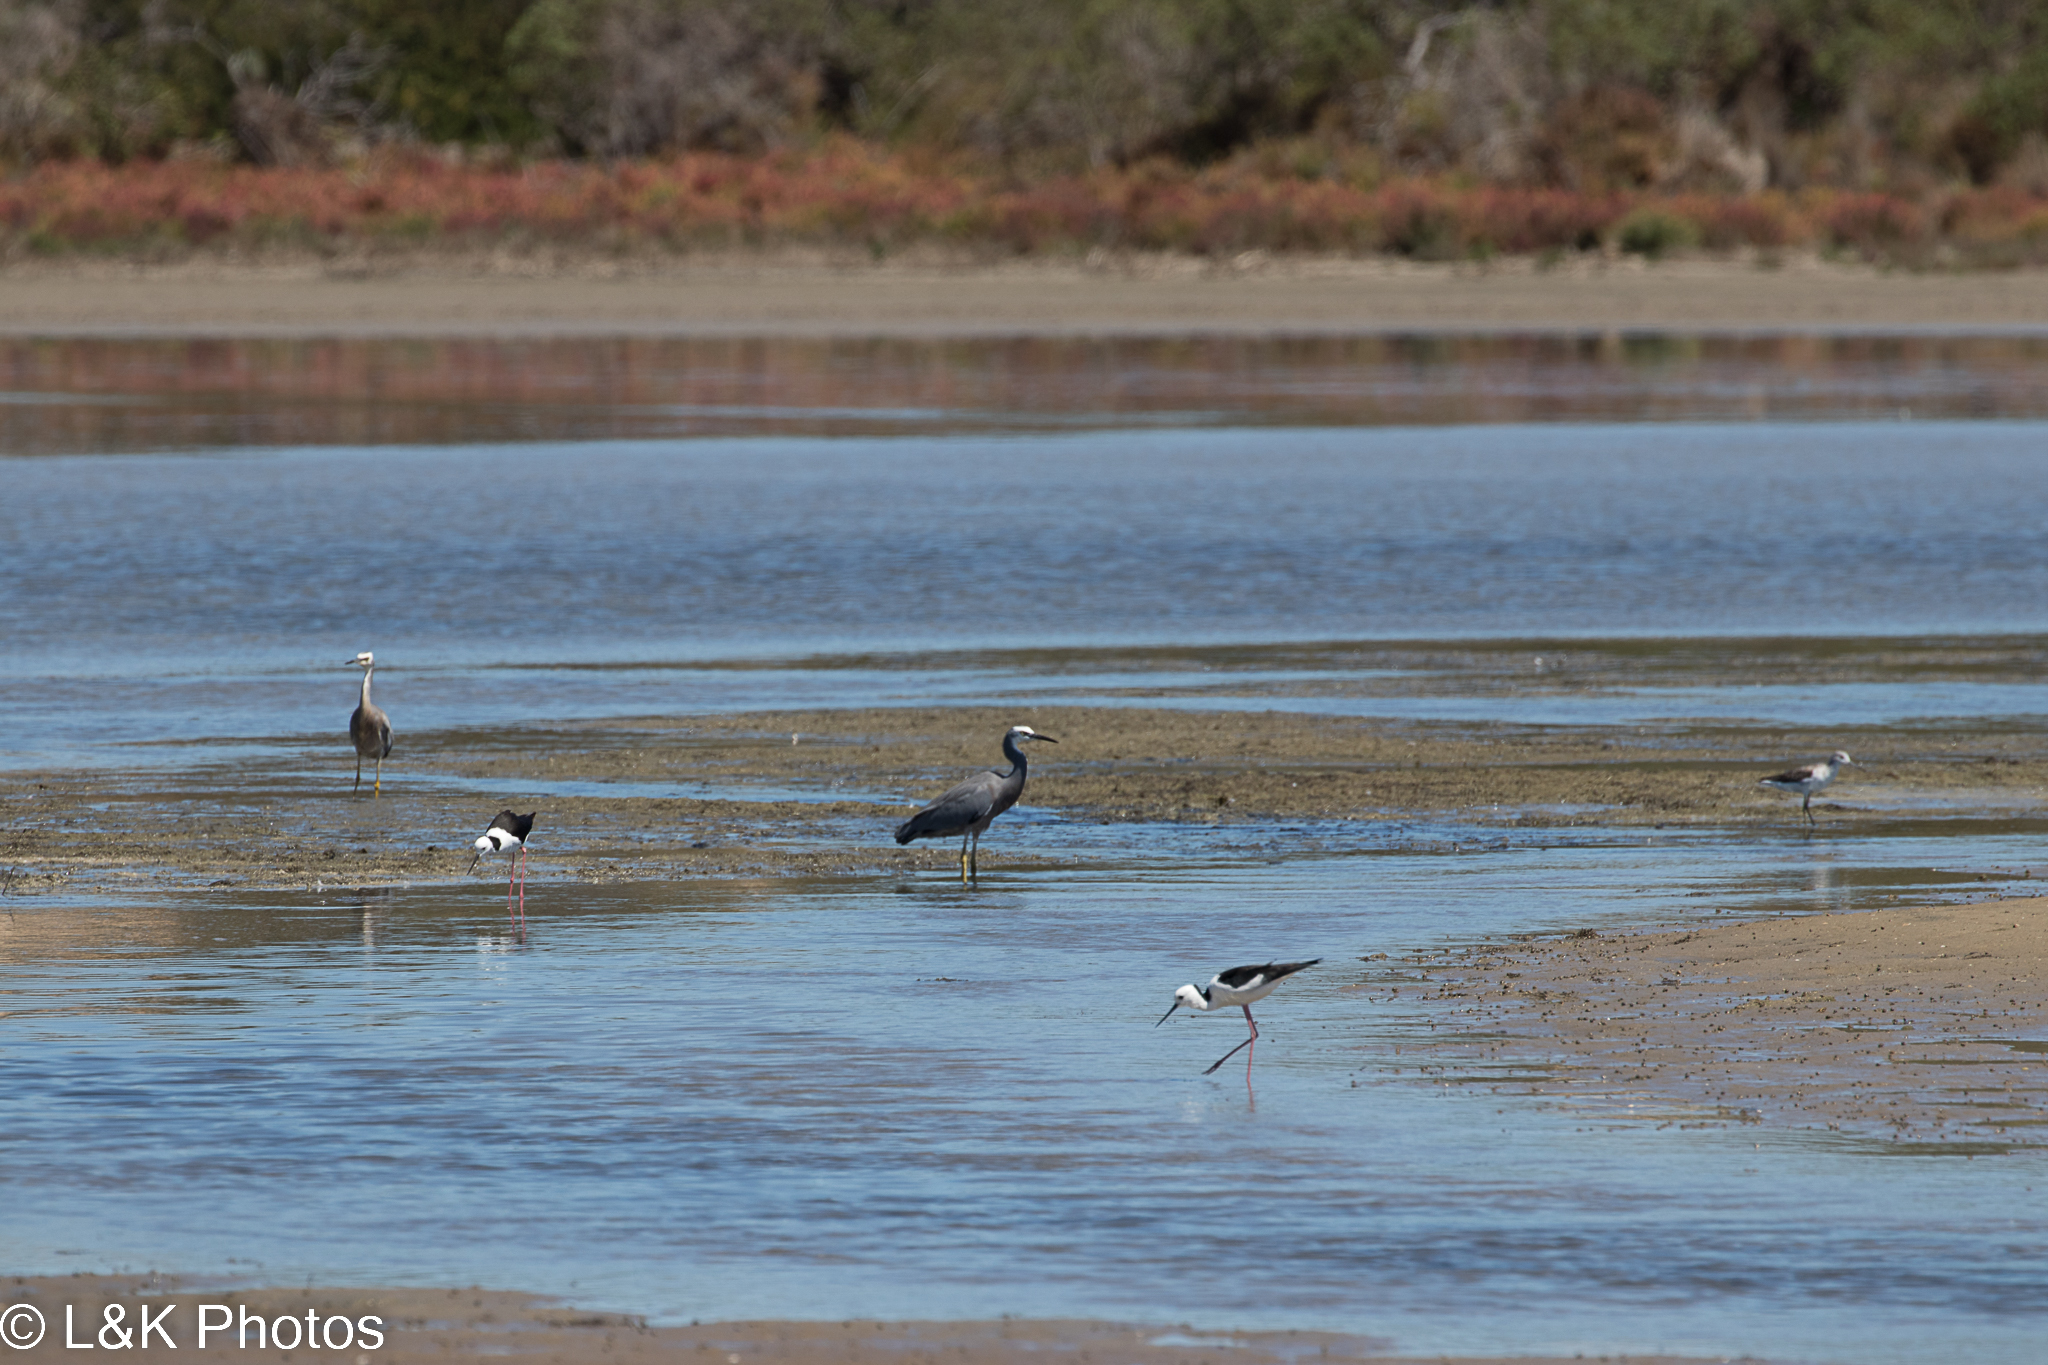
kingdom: Animalia
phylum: Chordata
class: Aves
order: Pelecaniformes
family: Ardeidae
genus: Egretta
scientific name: Egretta novaehollandiae
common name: White-faced heron
